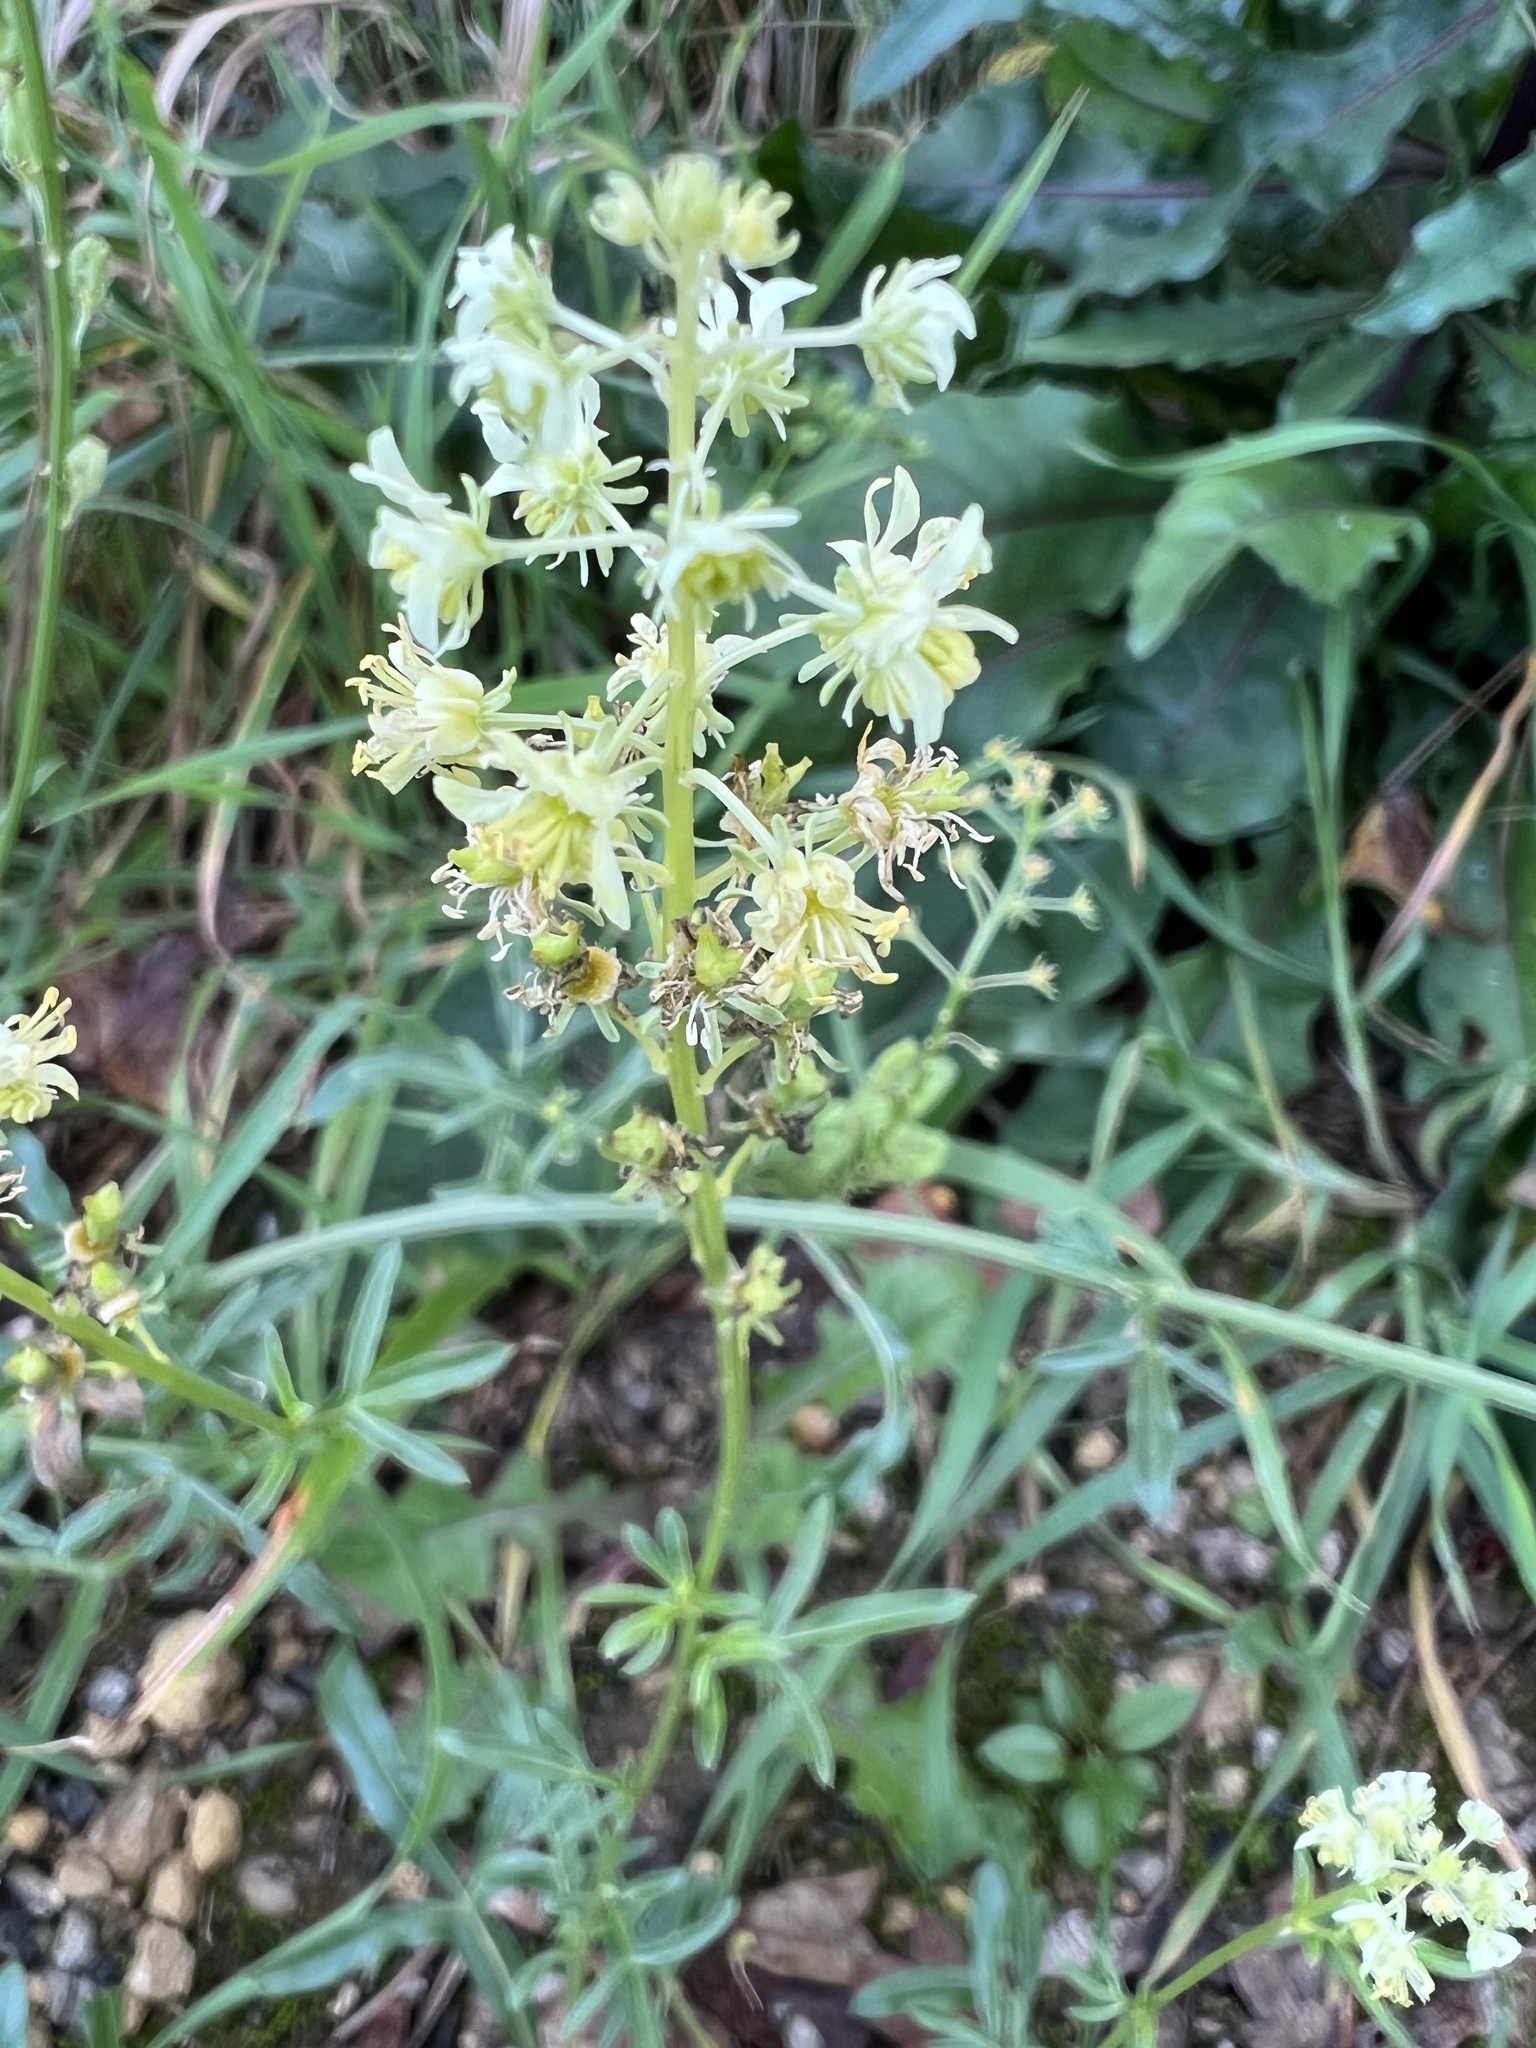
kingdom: Plantae
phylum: Tracheophyta
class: Magnoliopsida
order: Brassicales
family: Resedaceae
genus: Reseda
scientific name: Reseda lutea
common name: Wild mignonette
